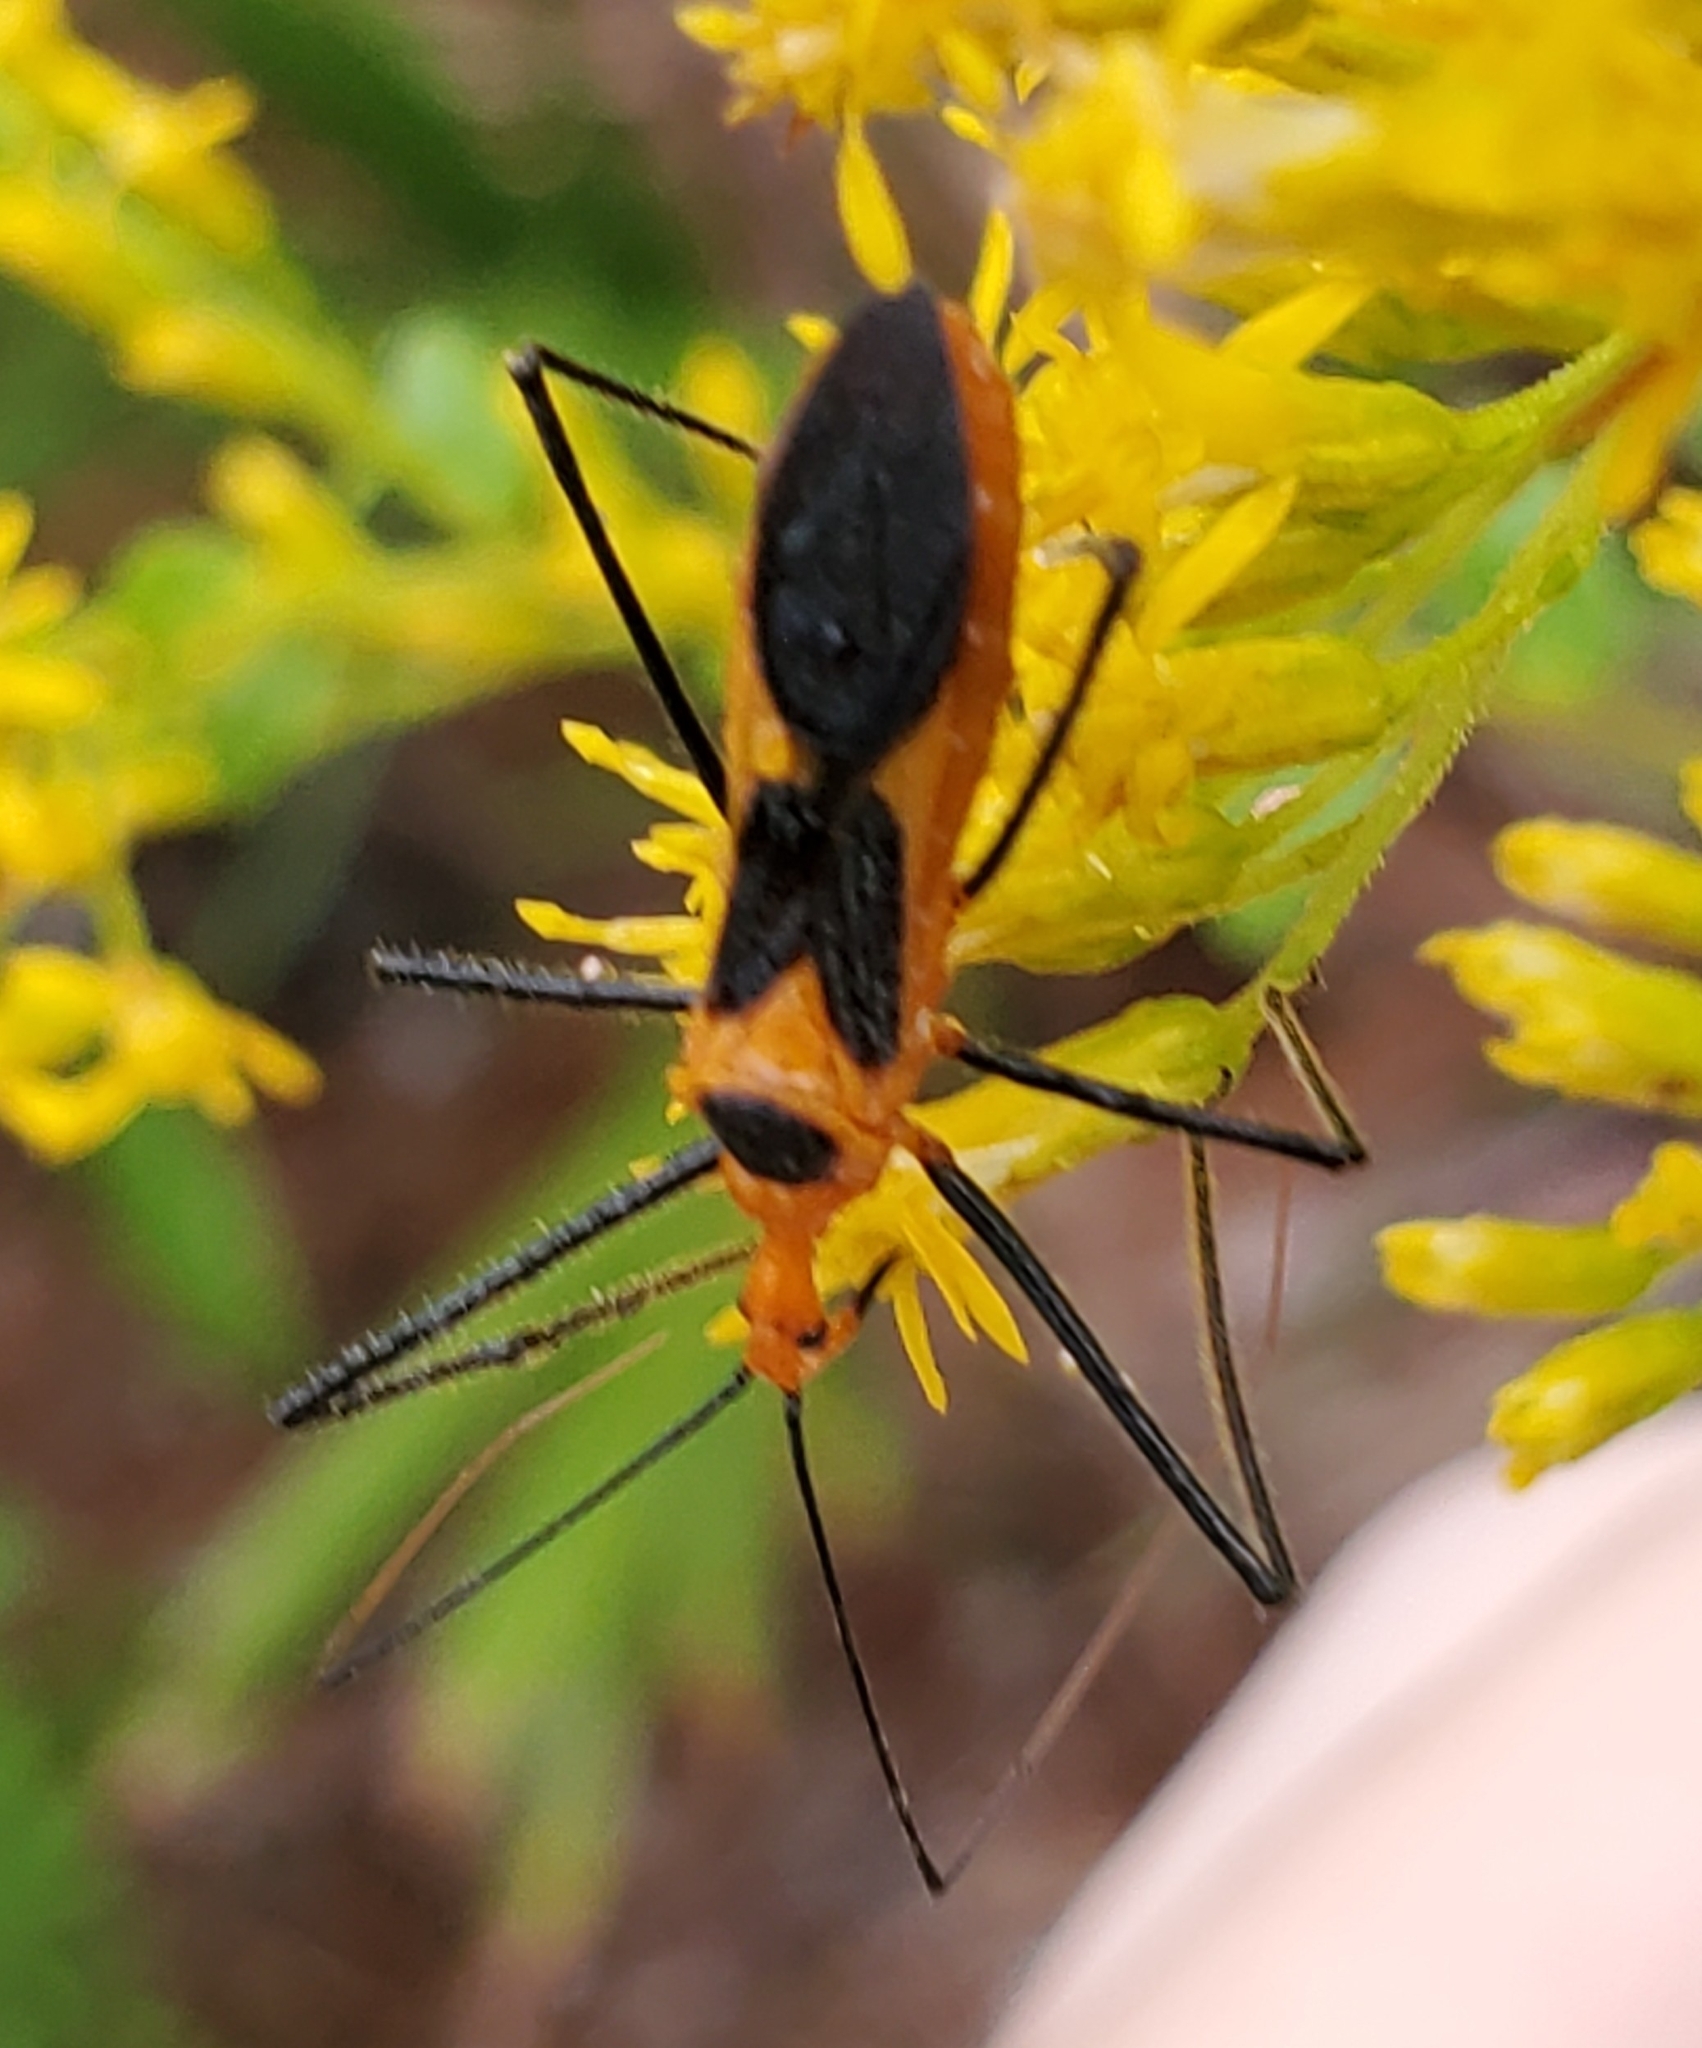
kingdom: Animalia
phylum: Arthropoda
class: Insecta
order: Hemiptera
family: Reduviidae
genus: Zelus
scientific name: Zelus longipes
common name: Milkweed assassin bug
